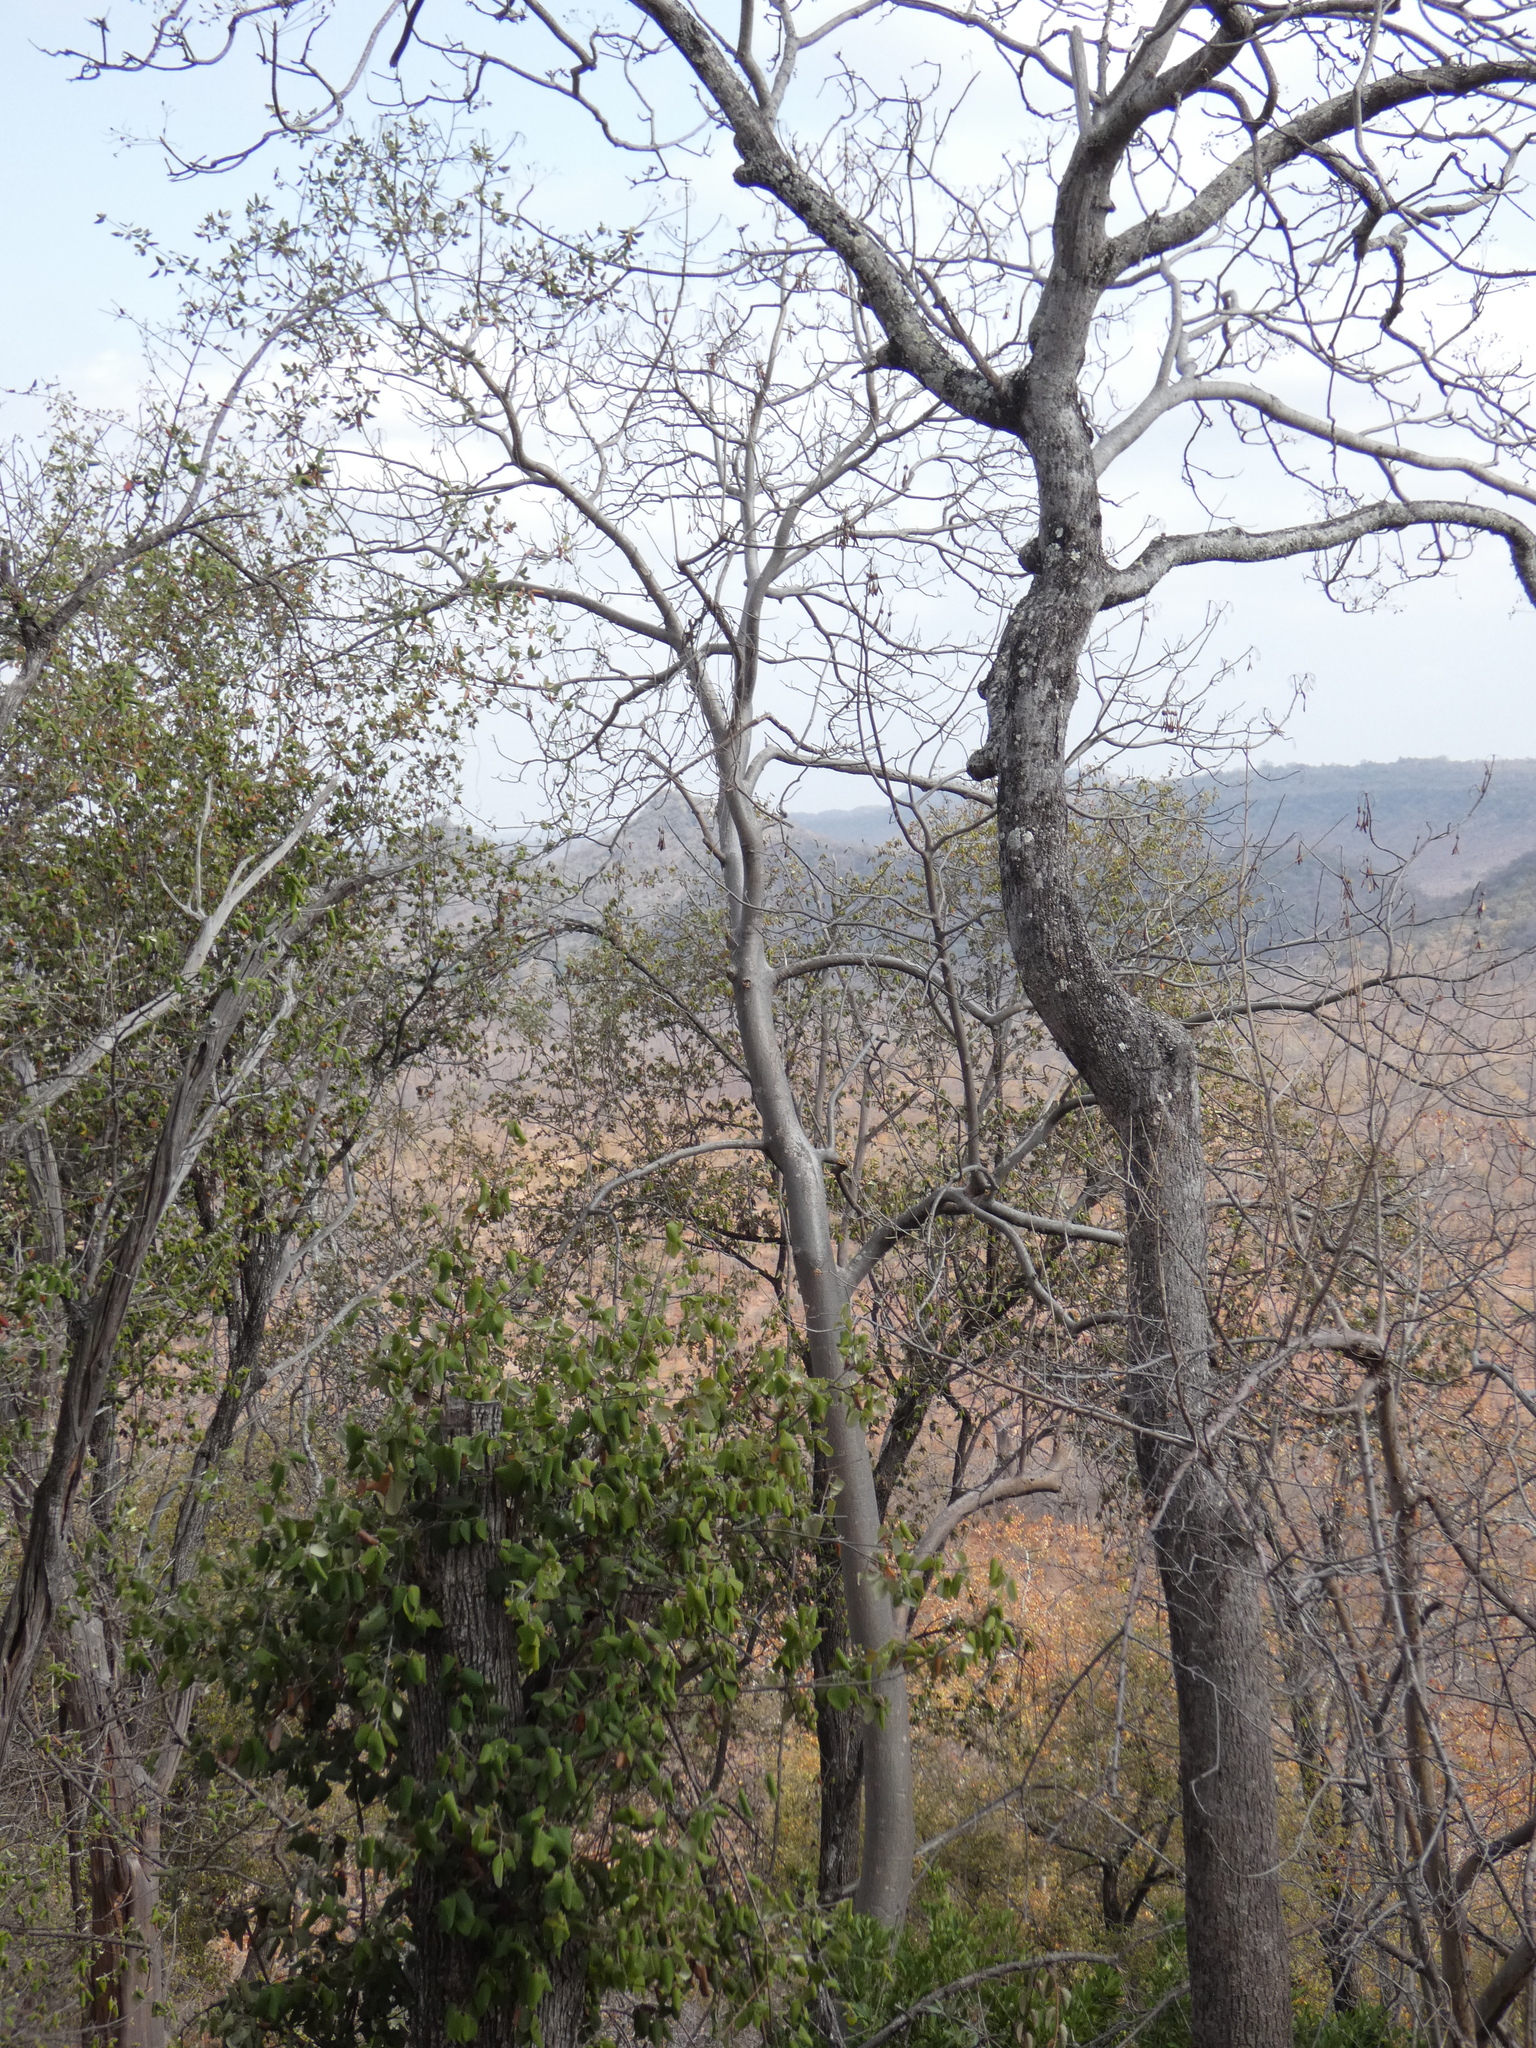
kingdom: Plantae
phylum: Tracheophyta
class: Magnoliopsida
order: Laurales
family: Hernandiaceae
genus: Gyrocarpus
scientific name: Gyrocarpus americanus
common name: Gyro damson
